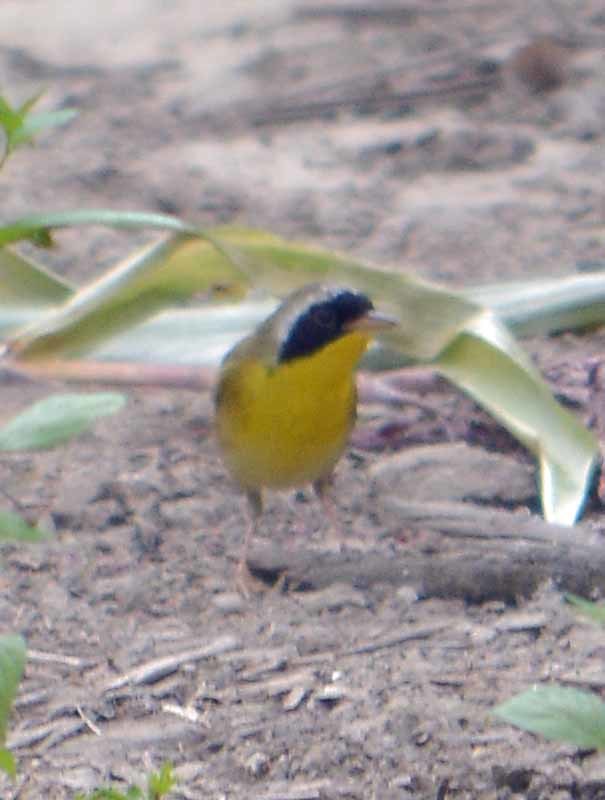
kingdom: Animalia
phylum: Chordata
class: Aves
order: Passeriformes
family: Parulidae
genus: Geothlypis
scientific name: Geothlypis trichas
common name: Common yellowthroat
